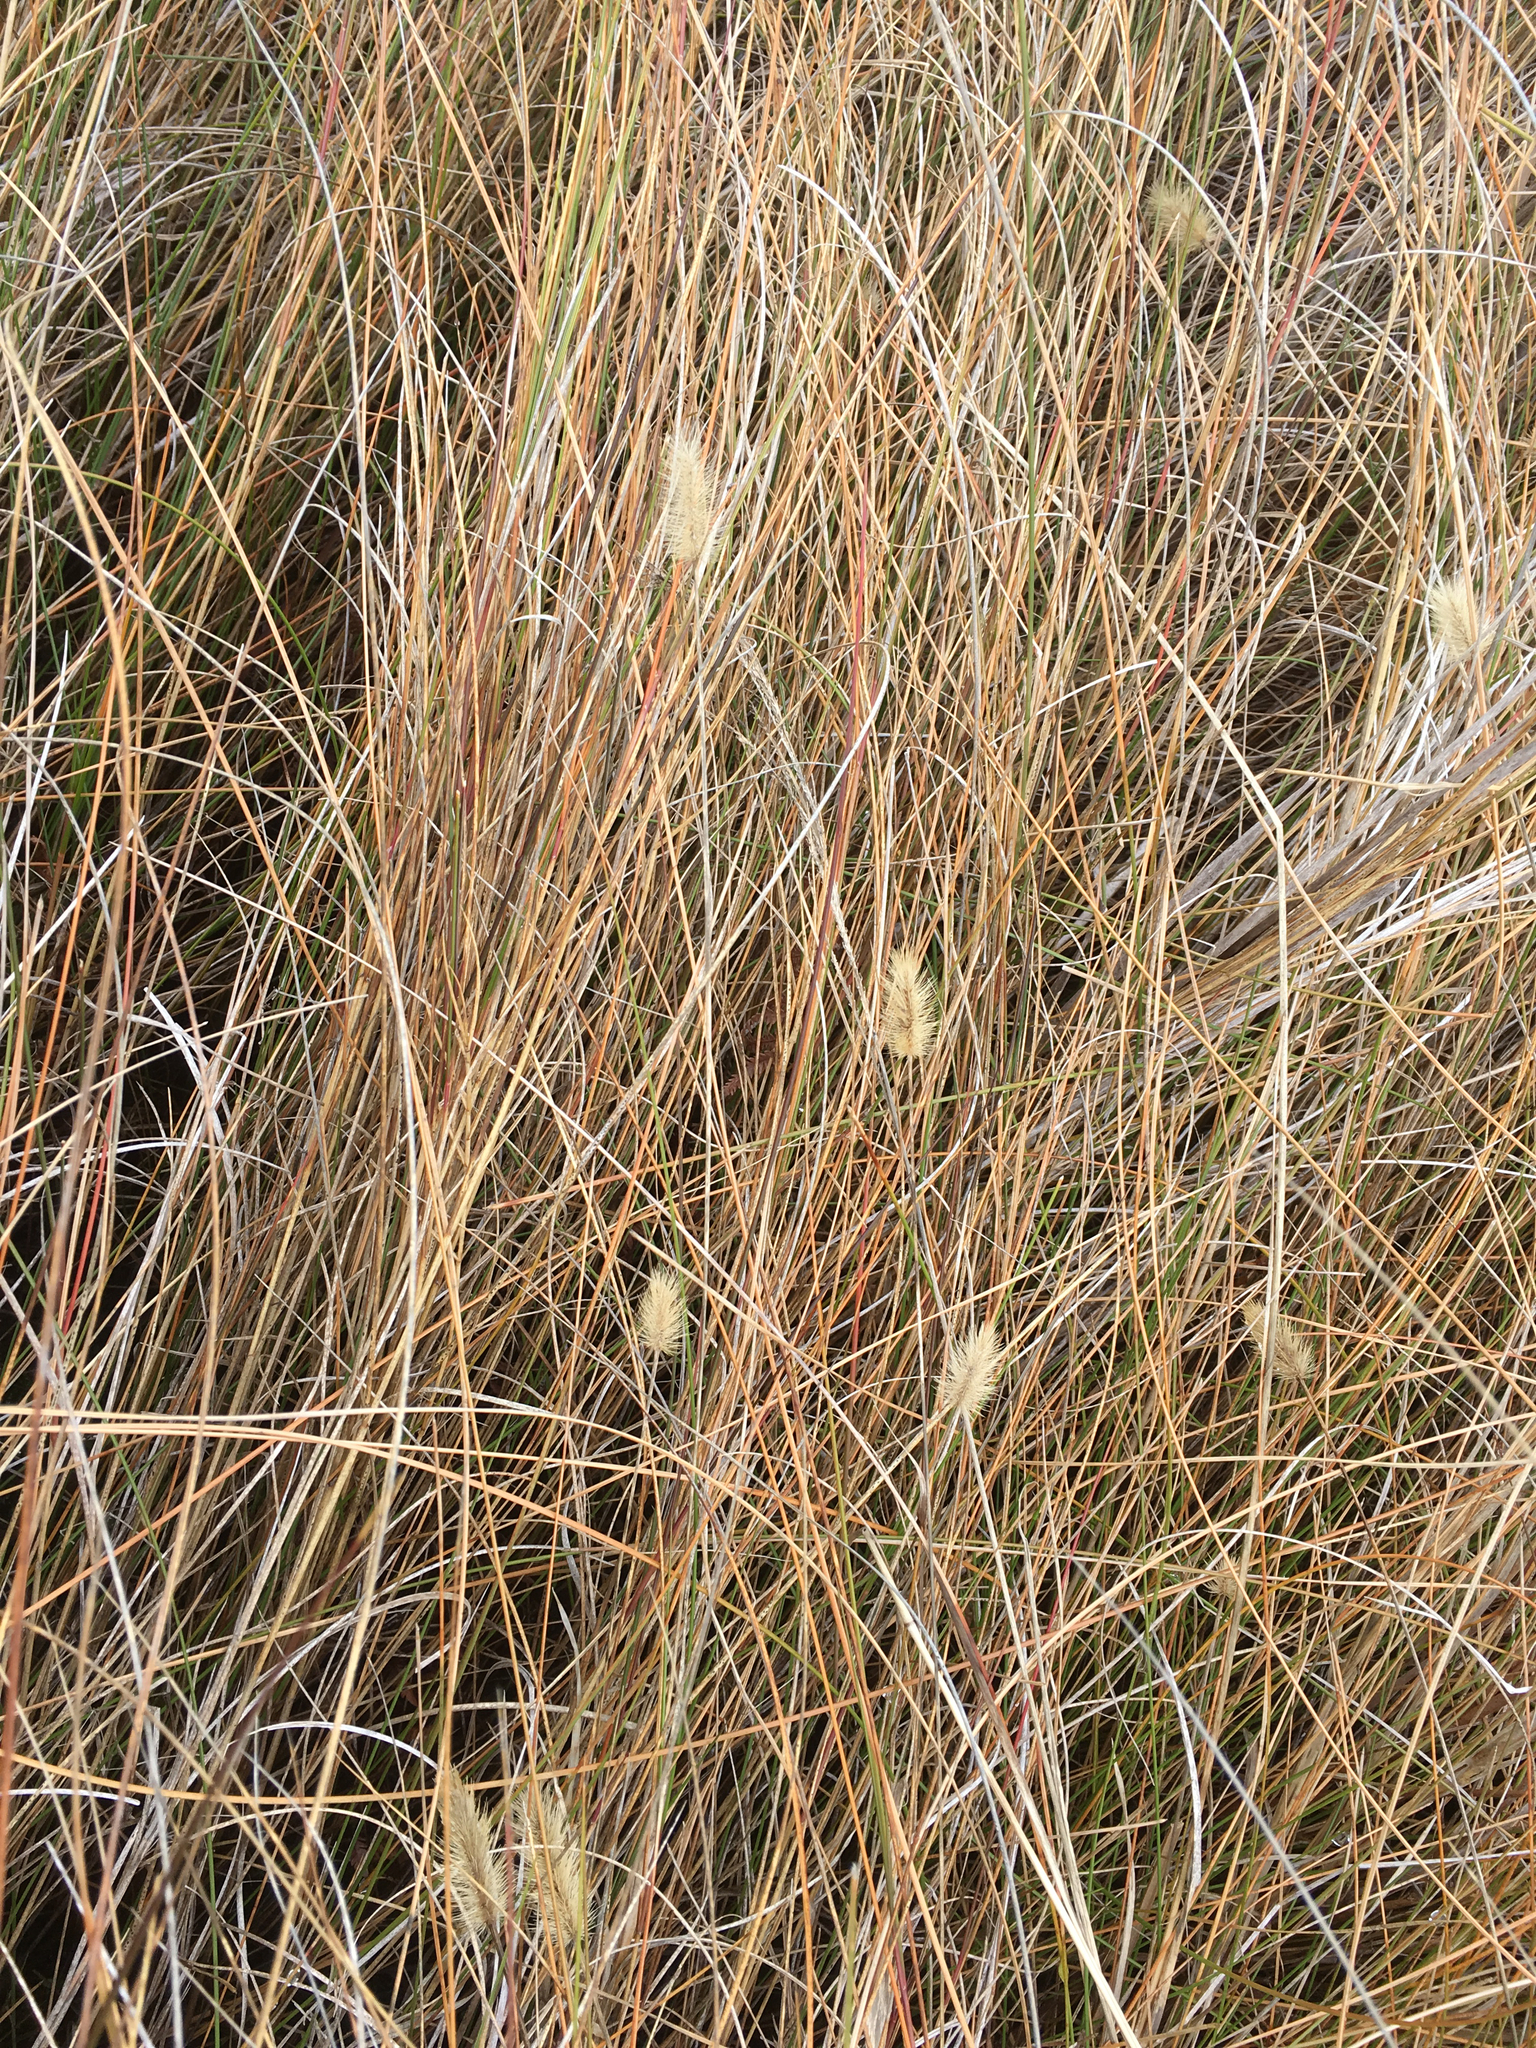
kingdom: Plantae
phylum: Tracheophyta
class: Liliopsida
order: Poales
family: Poaceae
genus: Setaria
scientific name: Setaria parviflora
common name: Knotroot bristle-grass
